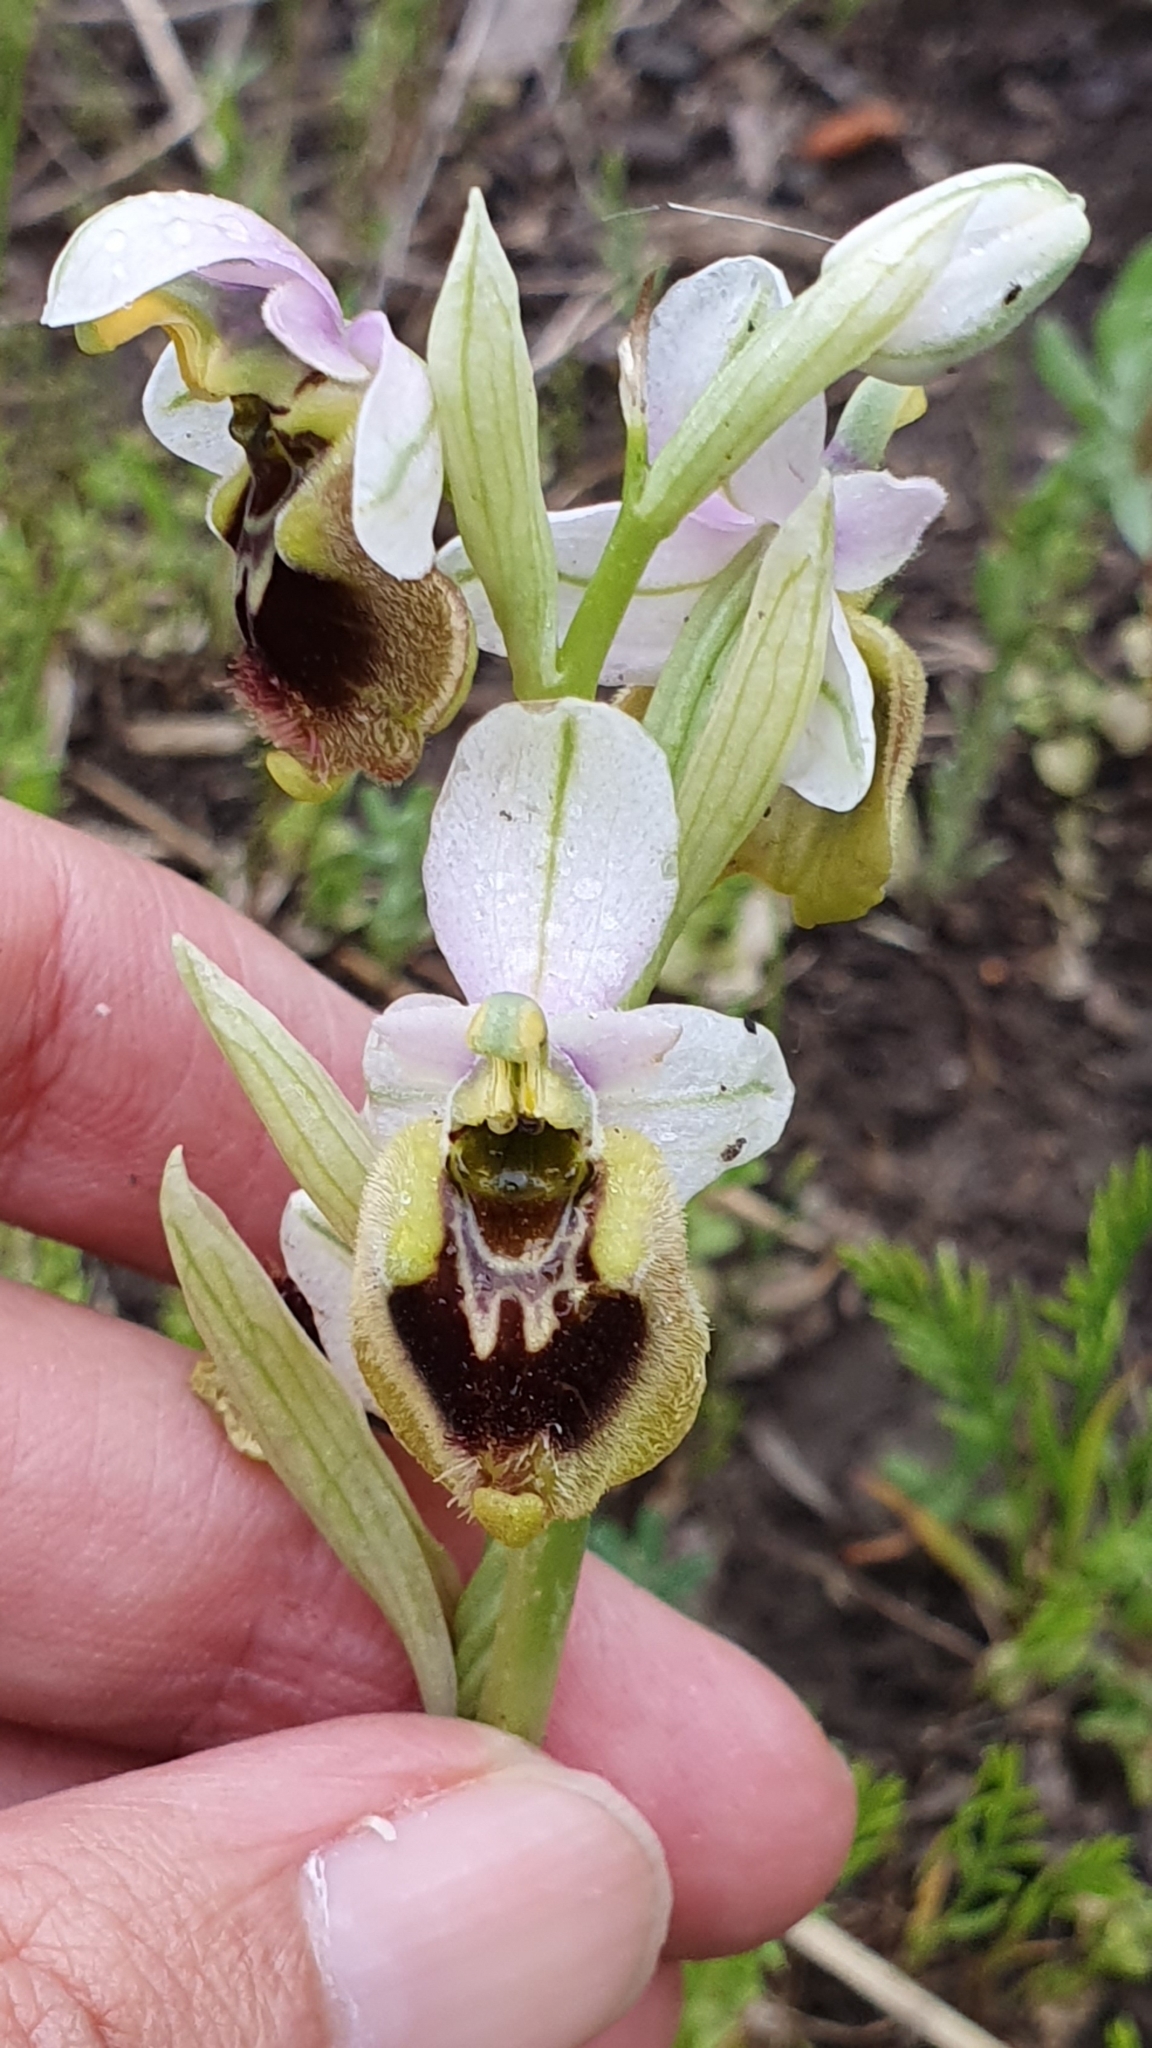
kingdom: Plantae
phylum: Tracheophyta
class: Liliopsida
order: Asparagales
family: Orchidaceae
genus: Ophrys
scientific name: Ophrys tenthredinifera
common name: Sawfly orchid
